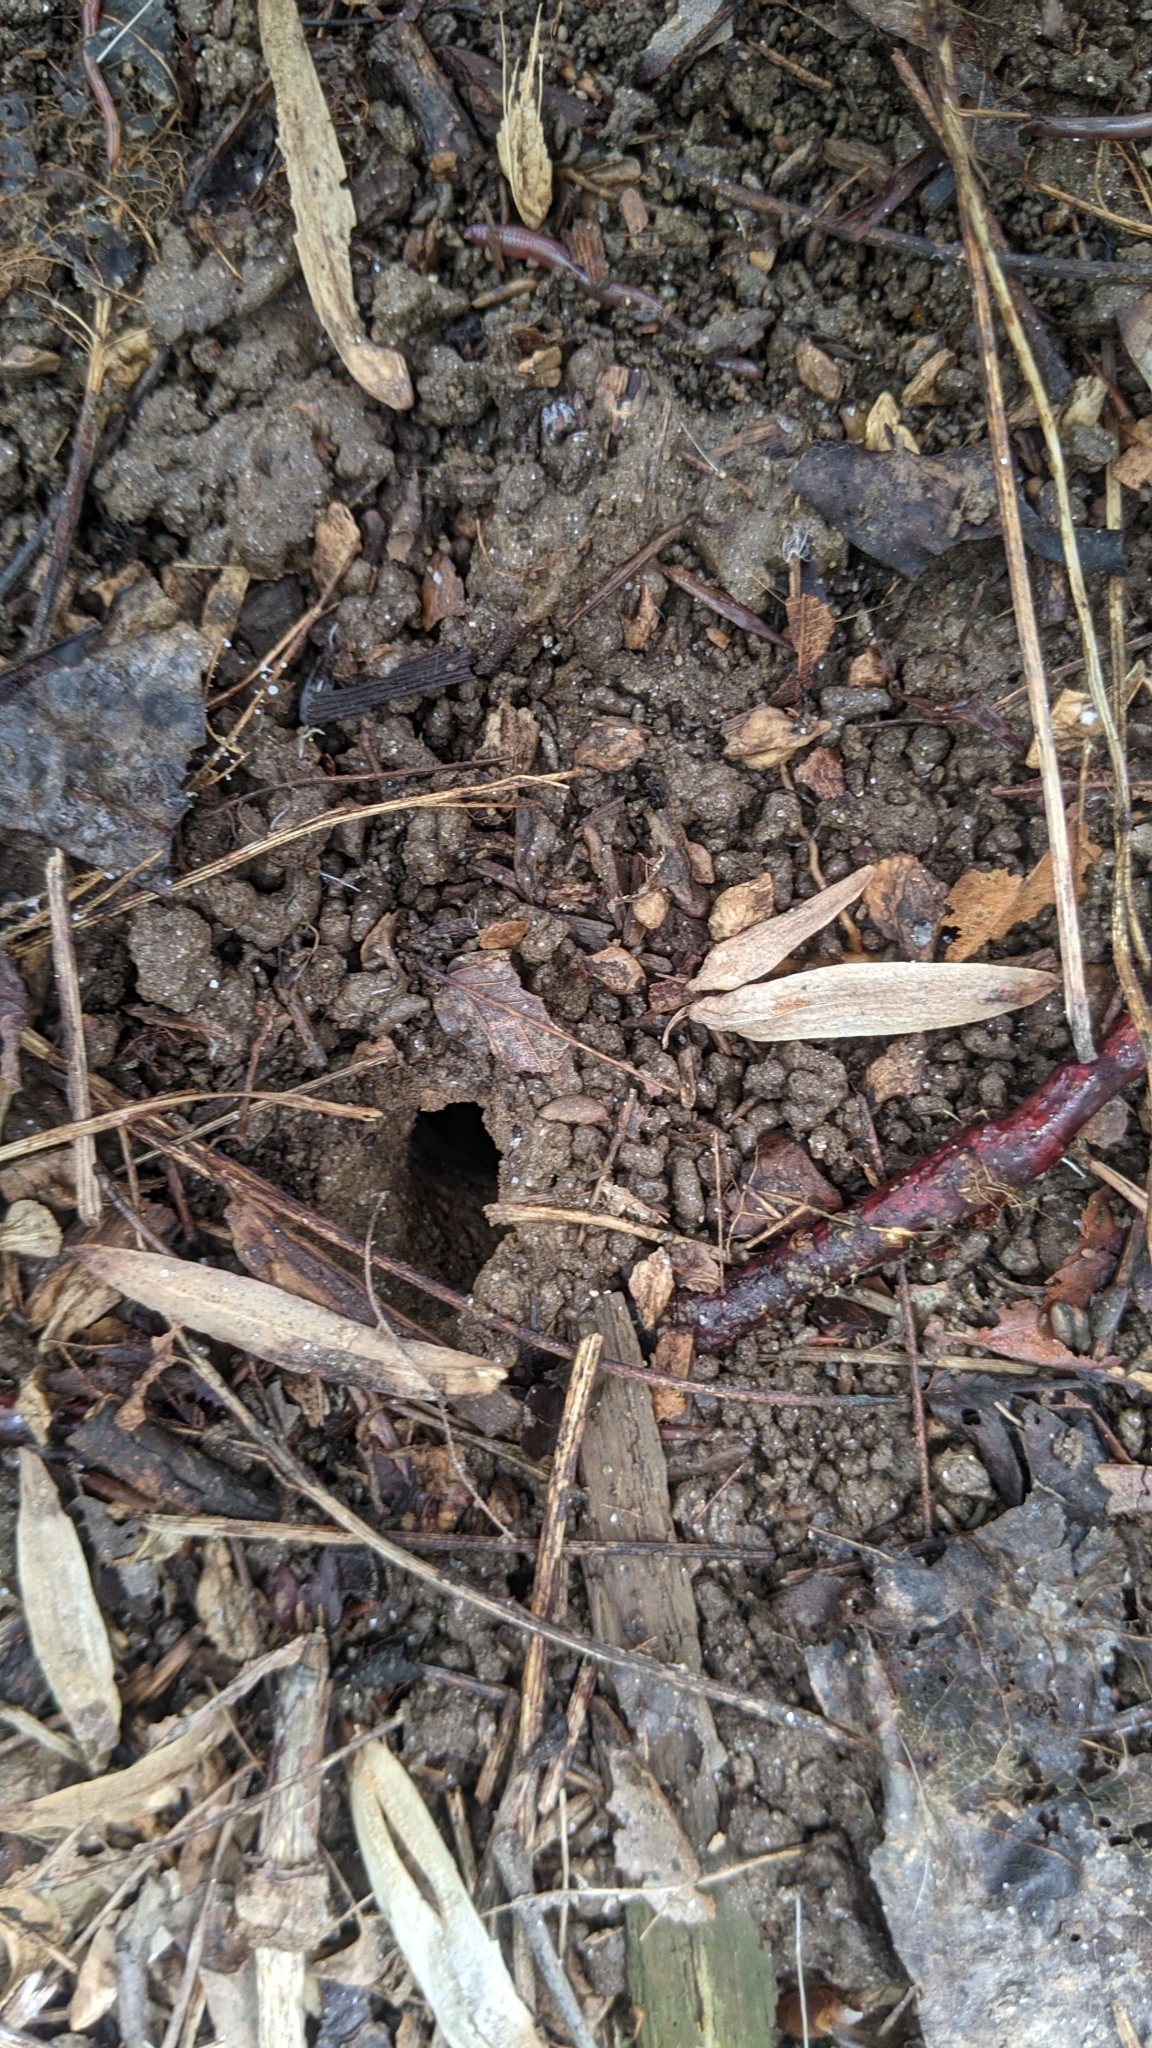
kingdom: Animalia
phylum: Arthropoda
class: Insecta
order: Hemiptera
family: Cicadidae
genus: Magicicada
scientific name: Magicicada
